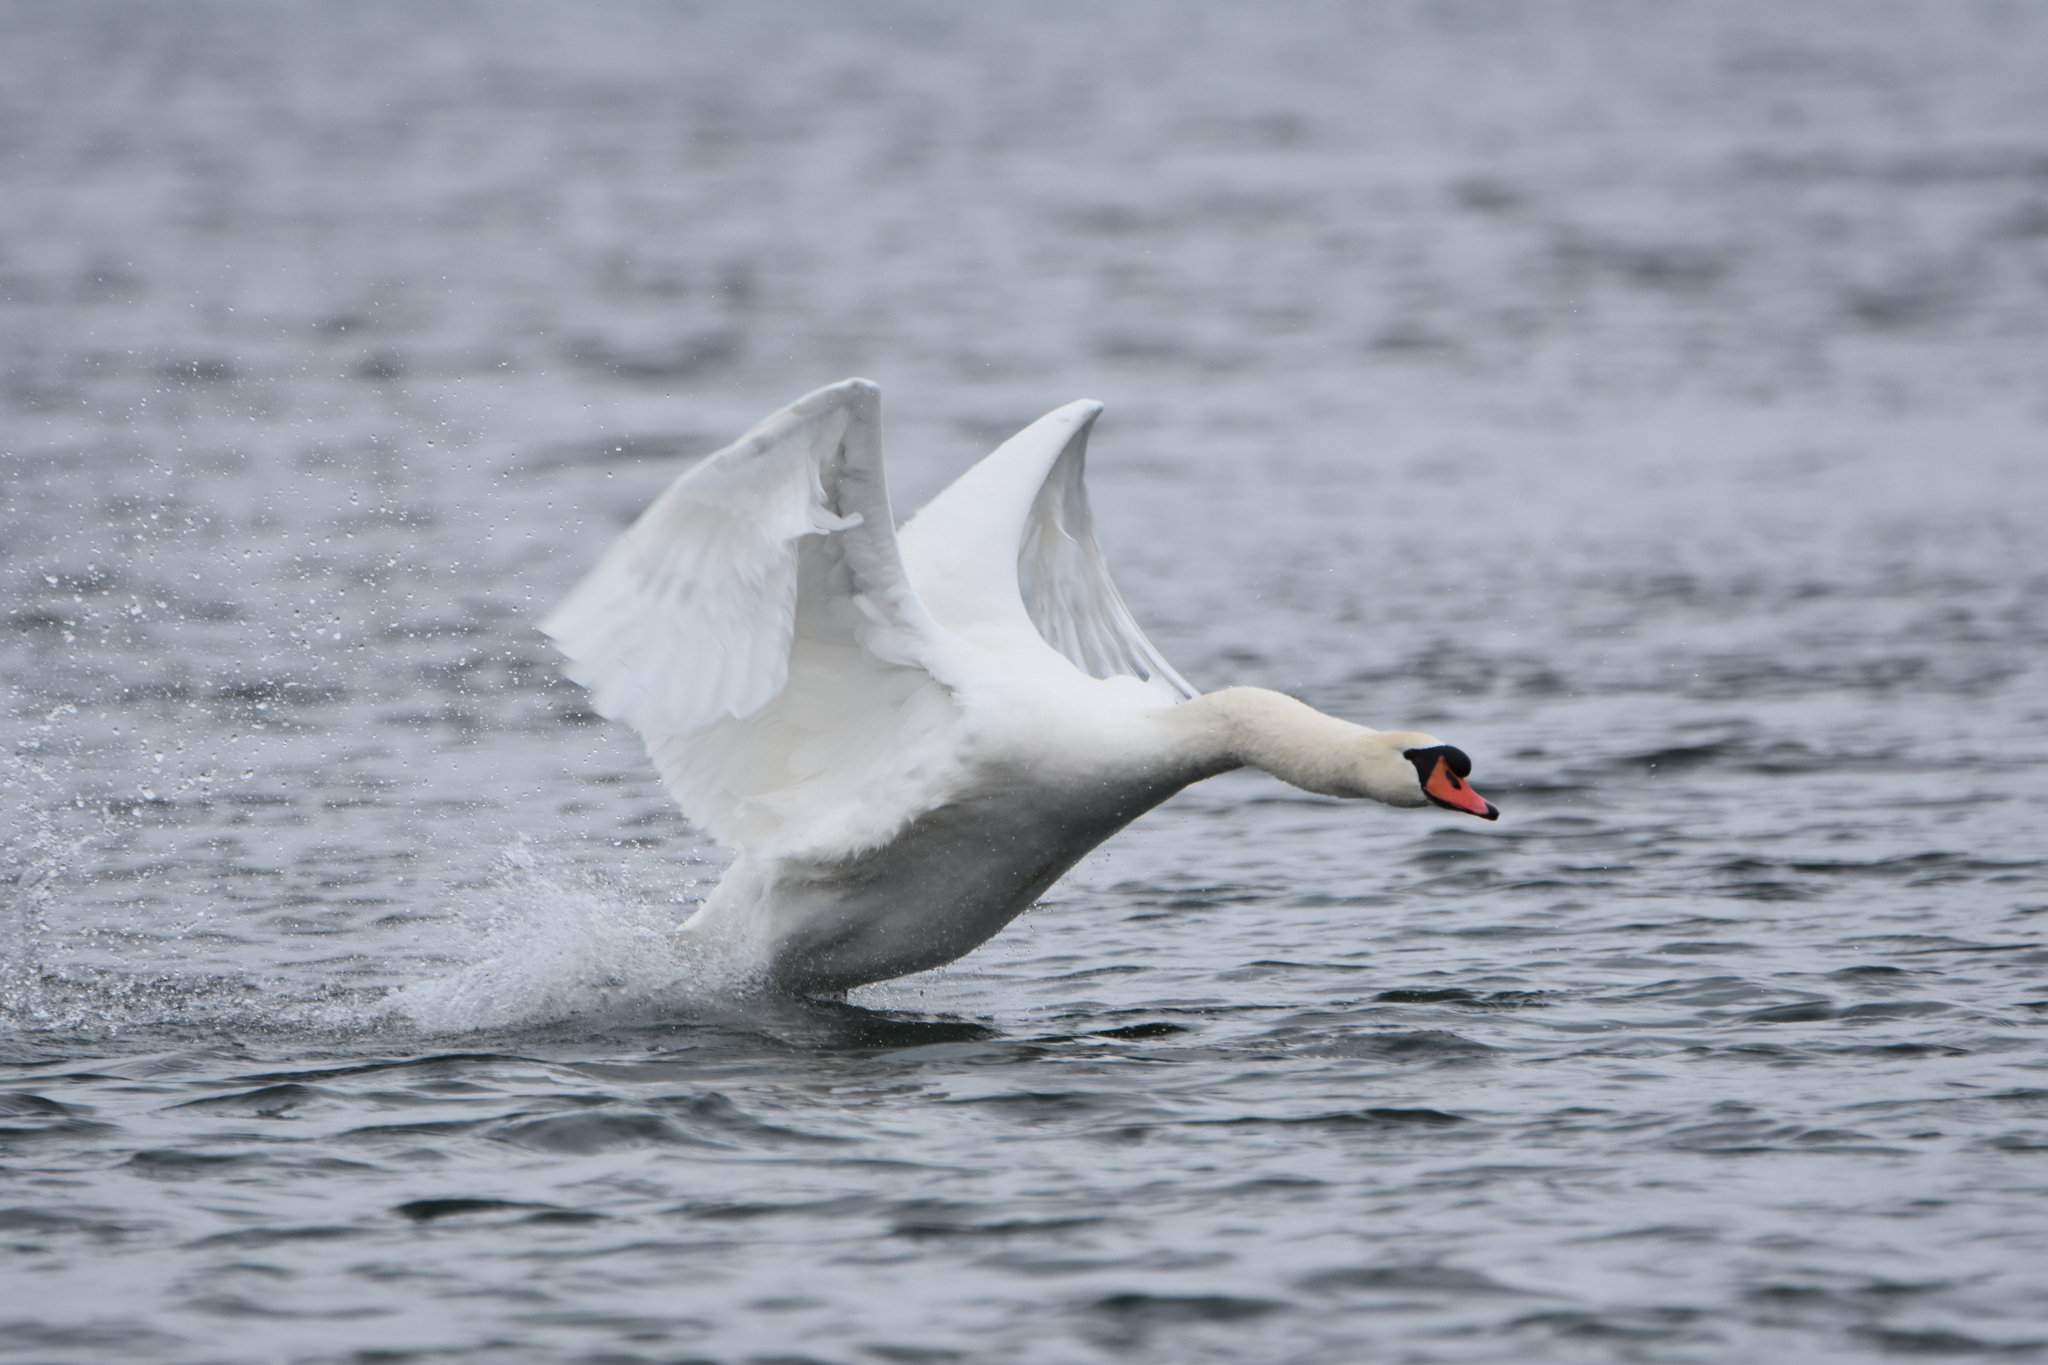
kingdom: Animalia
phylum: Chordata
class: Aves
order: Anseriformes
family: Anatidae
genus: Cygnus
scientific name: Cygnus olor
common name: Mute swan
